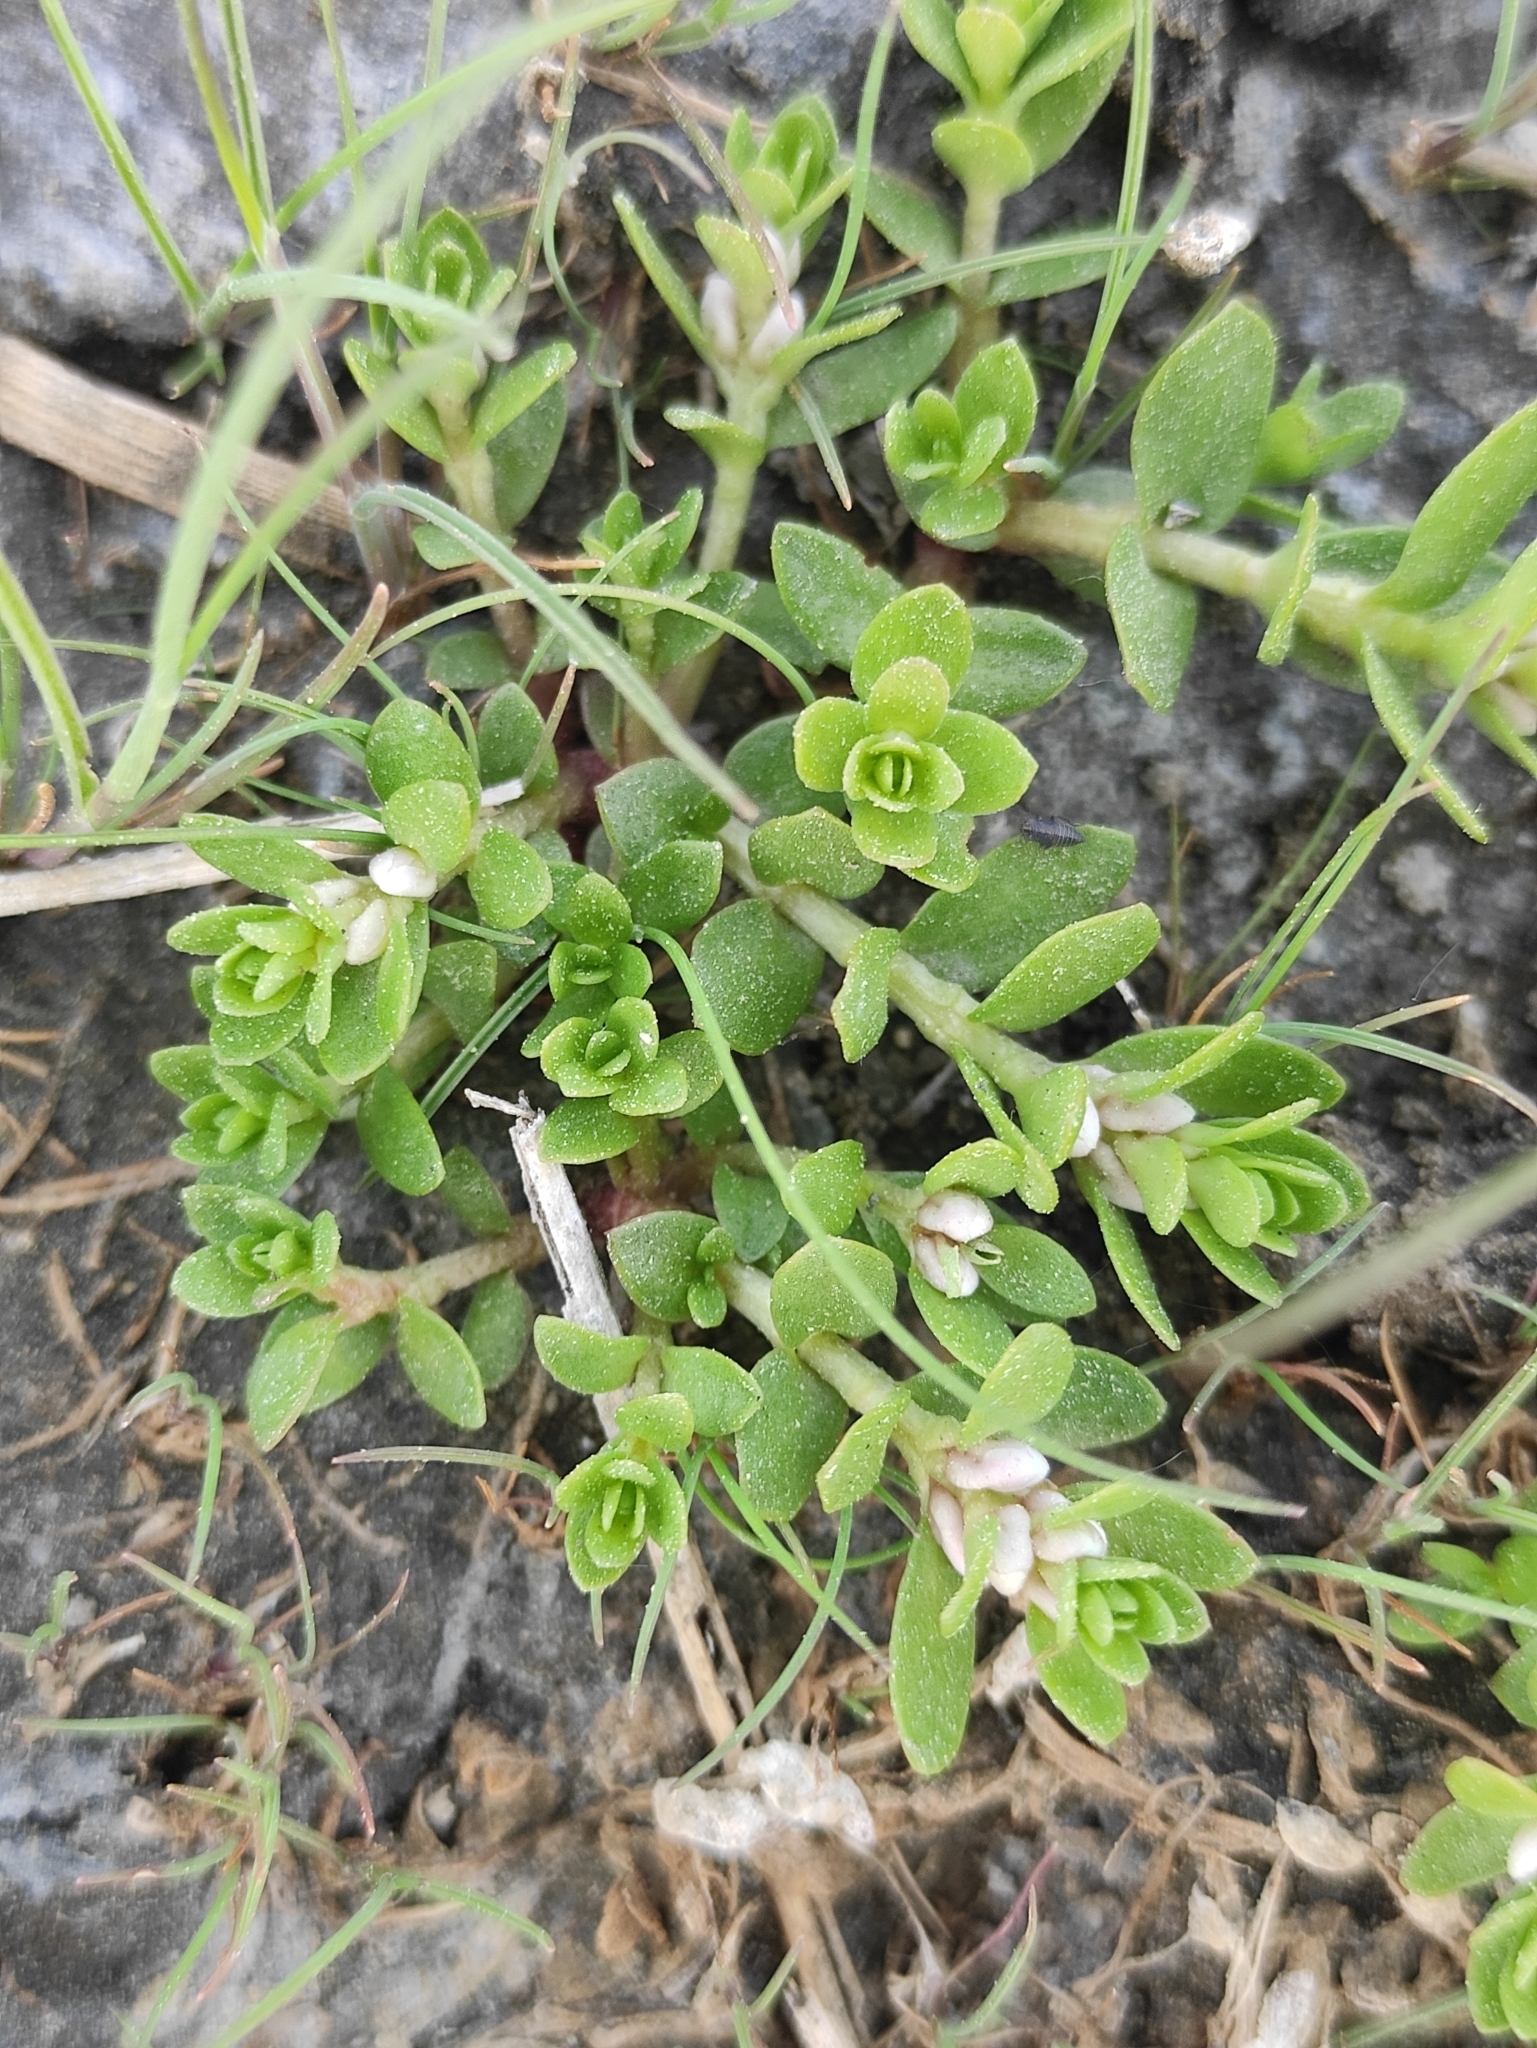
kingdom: Plantae
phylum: Tracheophyta
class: Magnoliopsida
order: Ericales
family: Primulaceae
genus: Lysimachia
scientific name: Lysimachia maritima
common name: Sea milkwort
